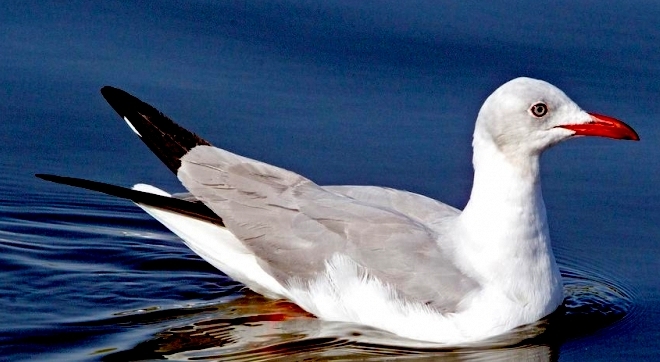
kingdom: Animalia
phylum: Chordata
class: Aves
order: Charadriiformes
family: Laridae
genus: Chroicocephalus
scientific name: Chroicocephalus cirrocephalus
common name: Grey-headed gull
